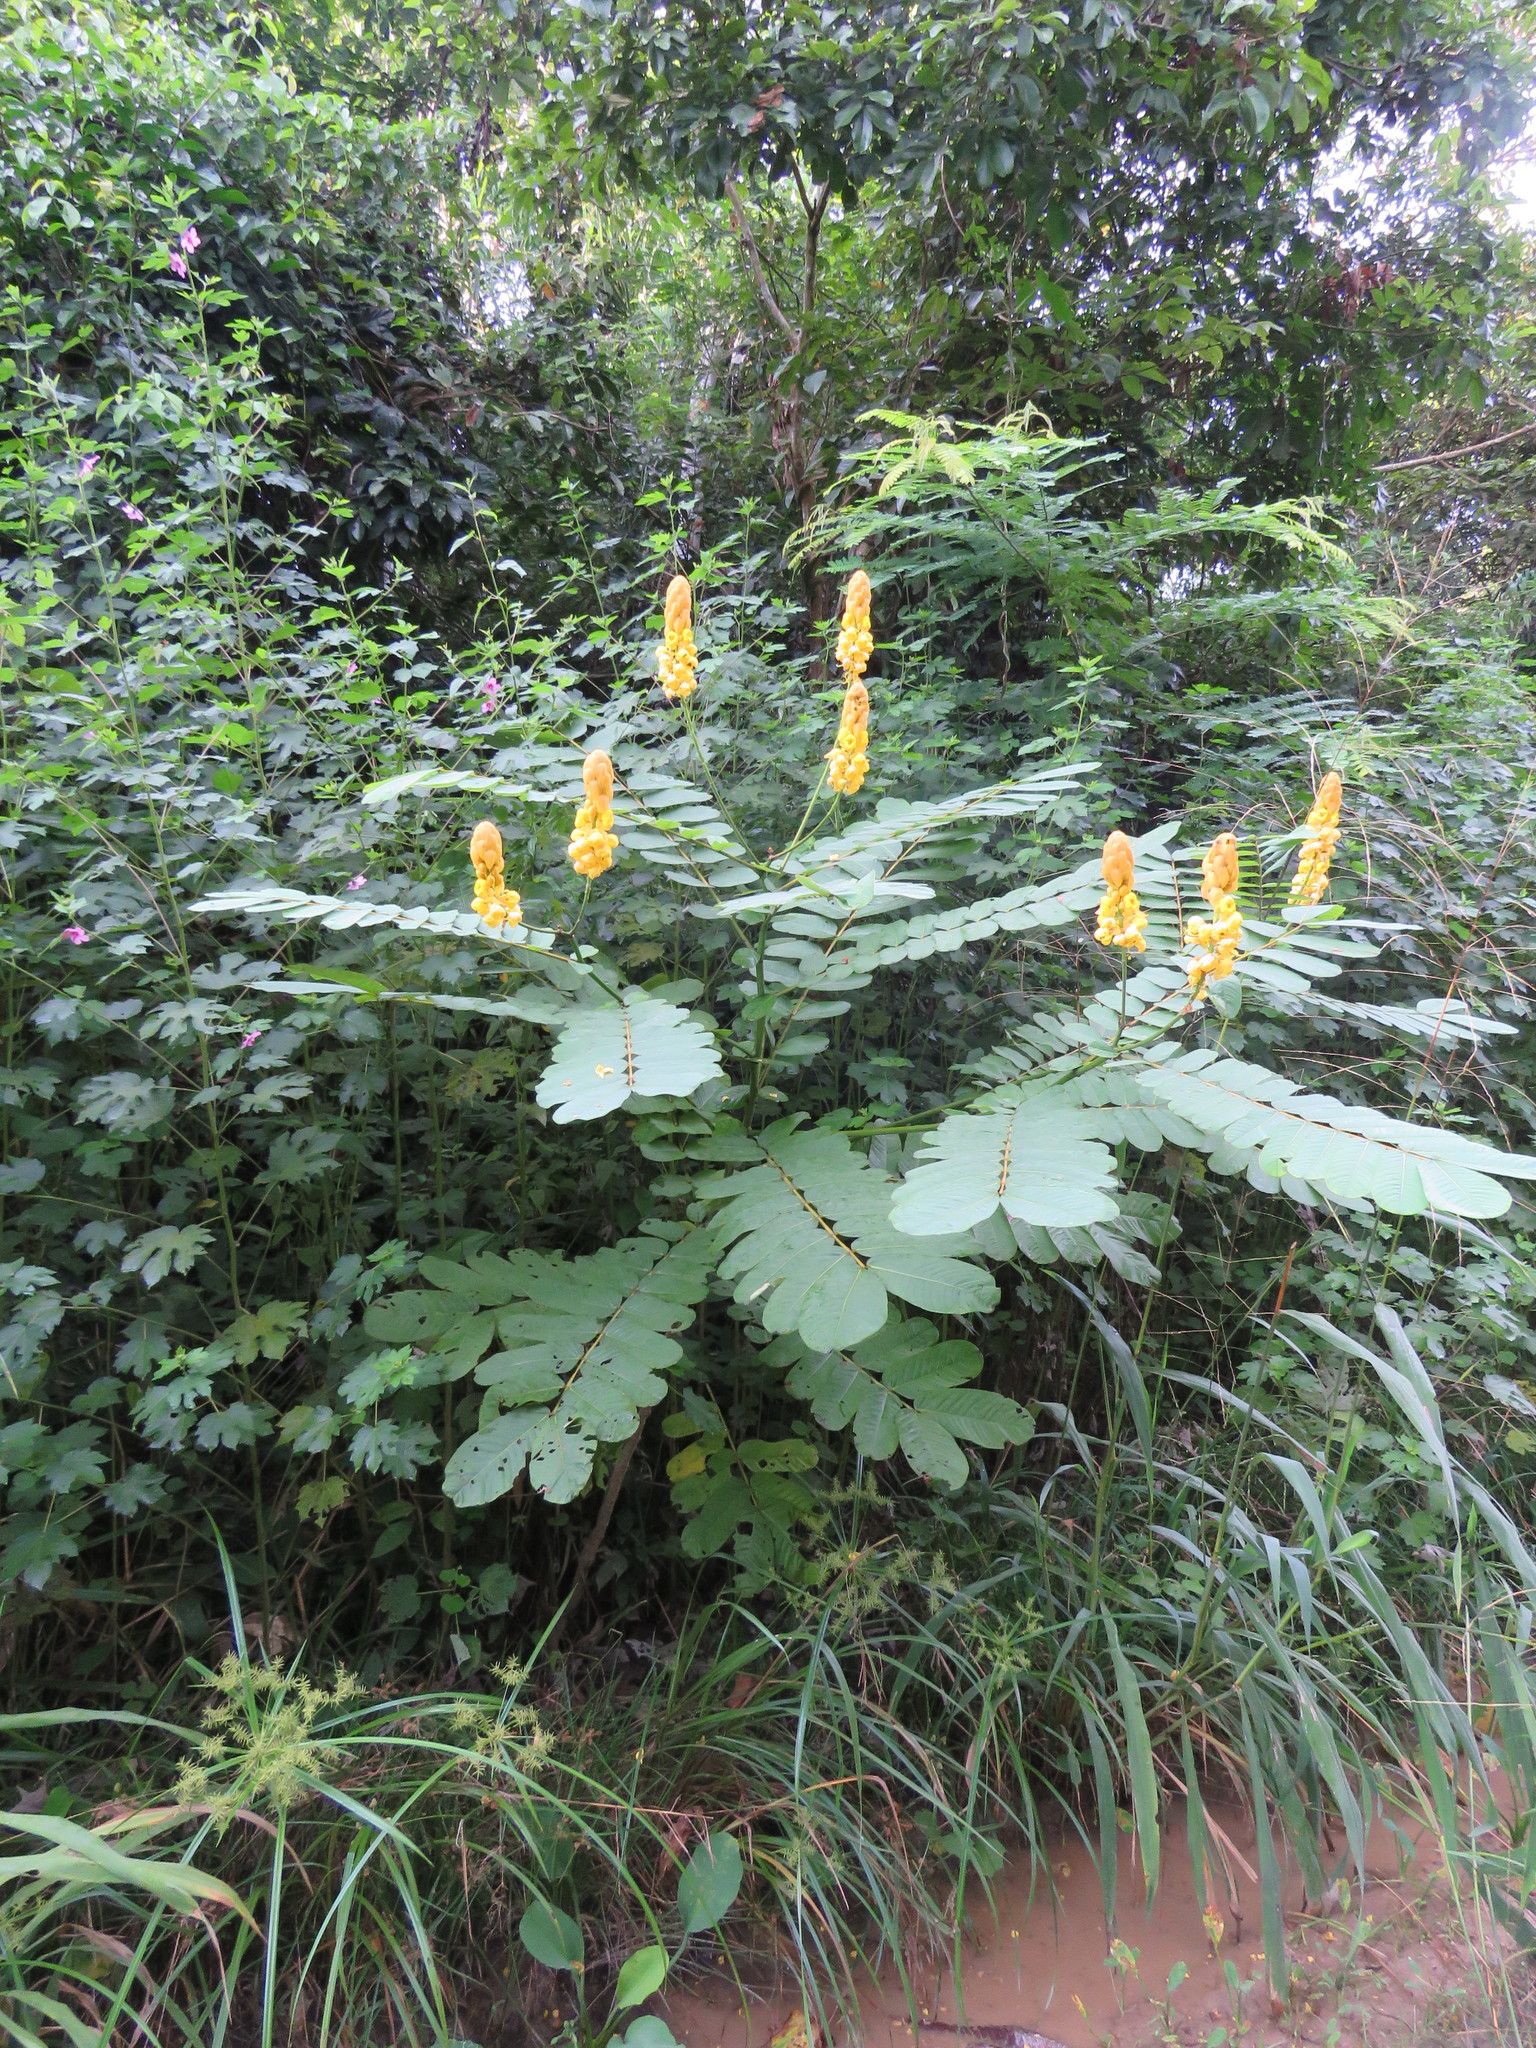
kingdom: Plantae
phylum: Tracheophyta
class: Magnoliopsida
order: Fabales
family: Fabaceae
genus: Senna
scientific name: Senna alata
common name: Emperor's candlesticks
